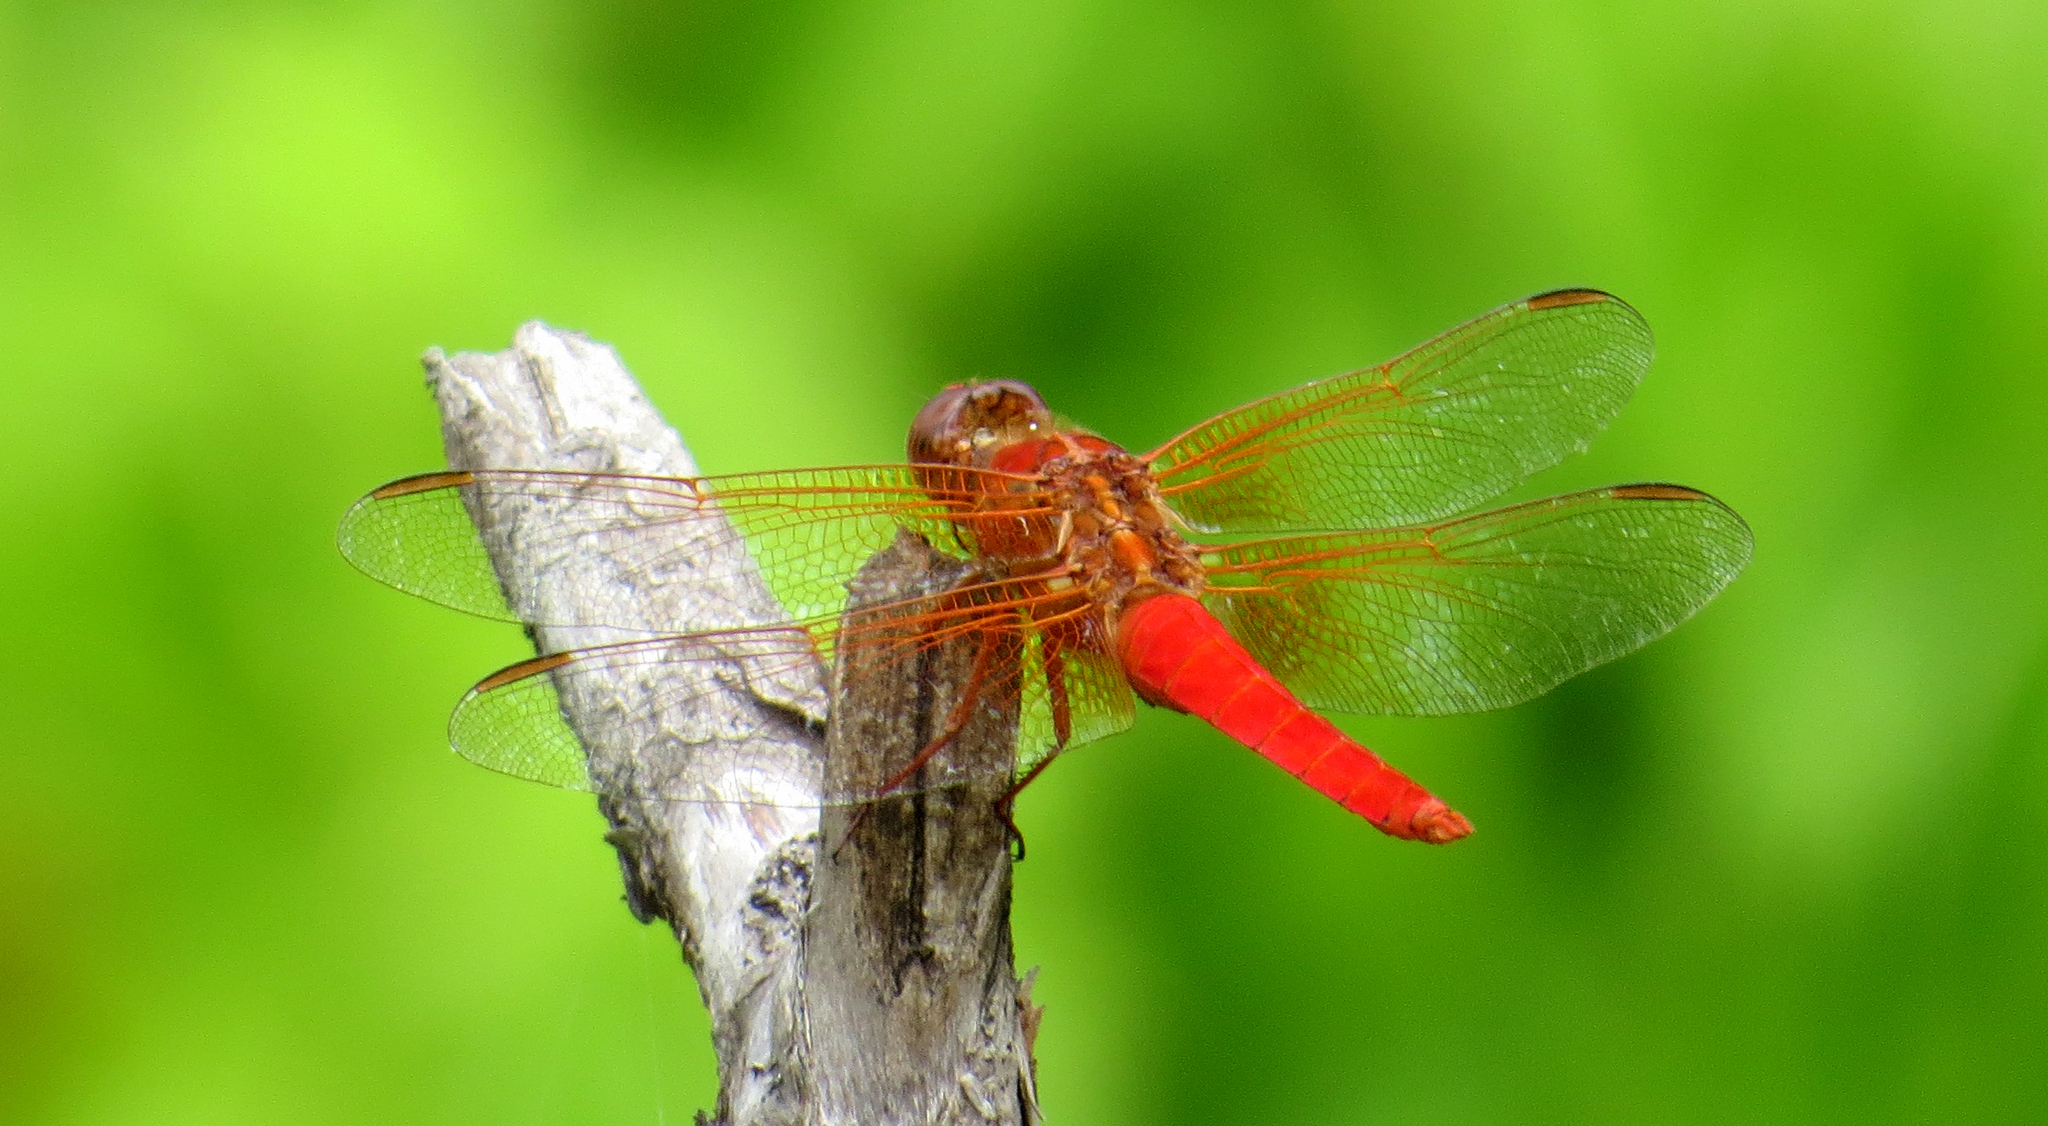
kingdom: Animalia
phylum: Arthropoda
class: Insecta
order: Odonata
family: Libellulidae
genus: Libellula
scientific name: Libellula croceipennis
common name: Neon skimmer
